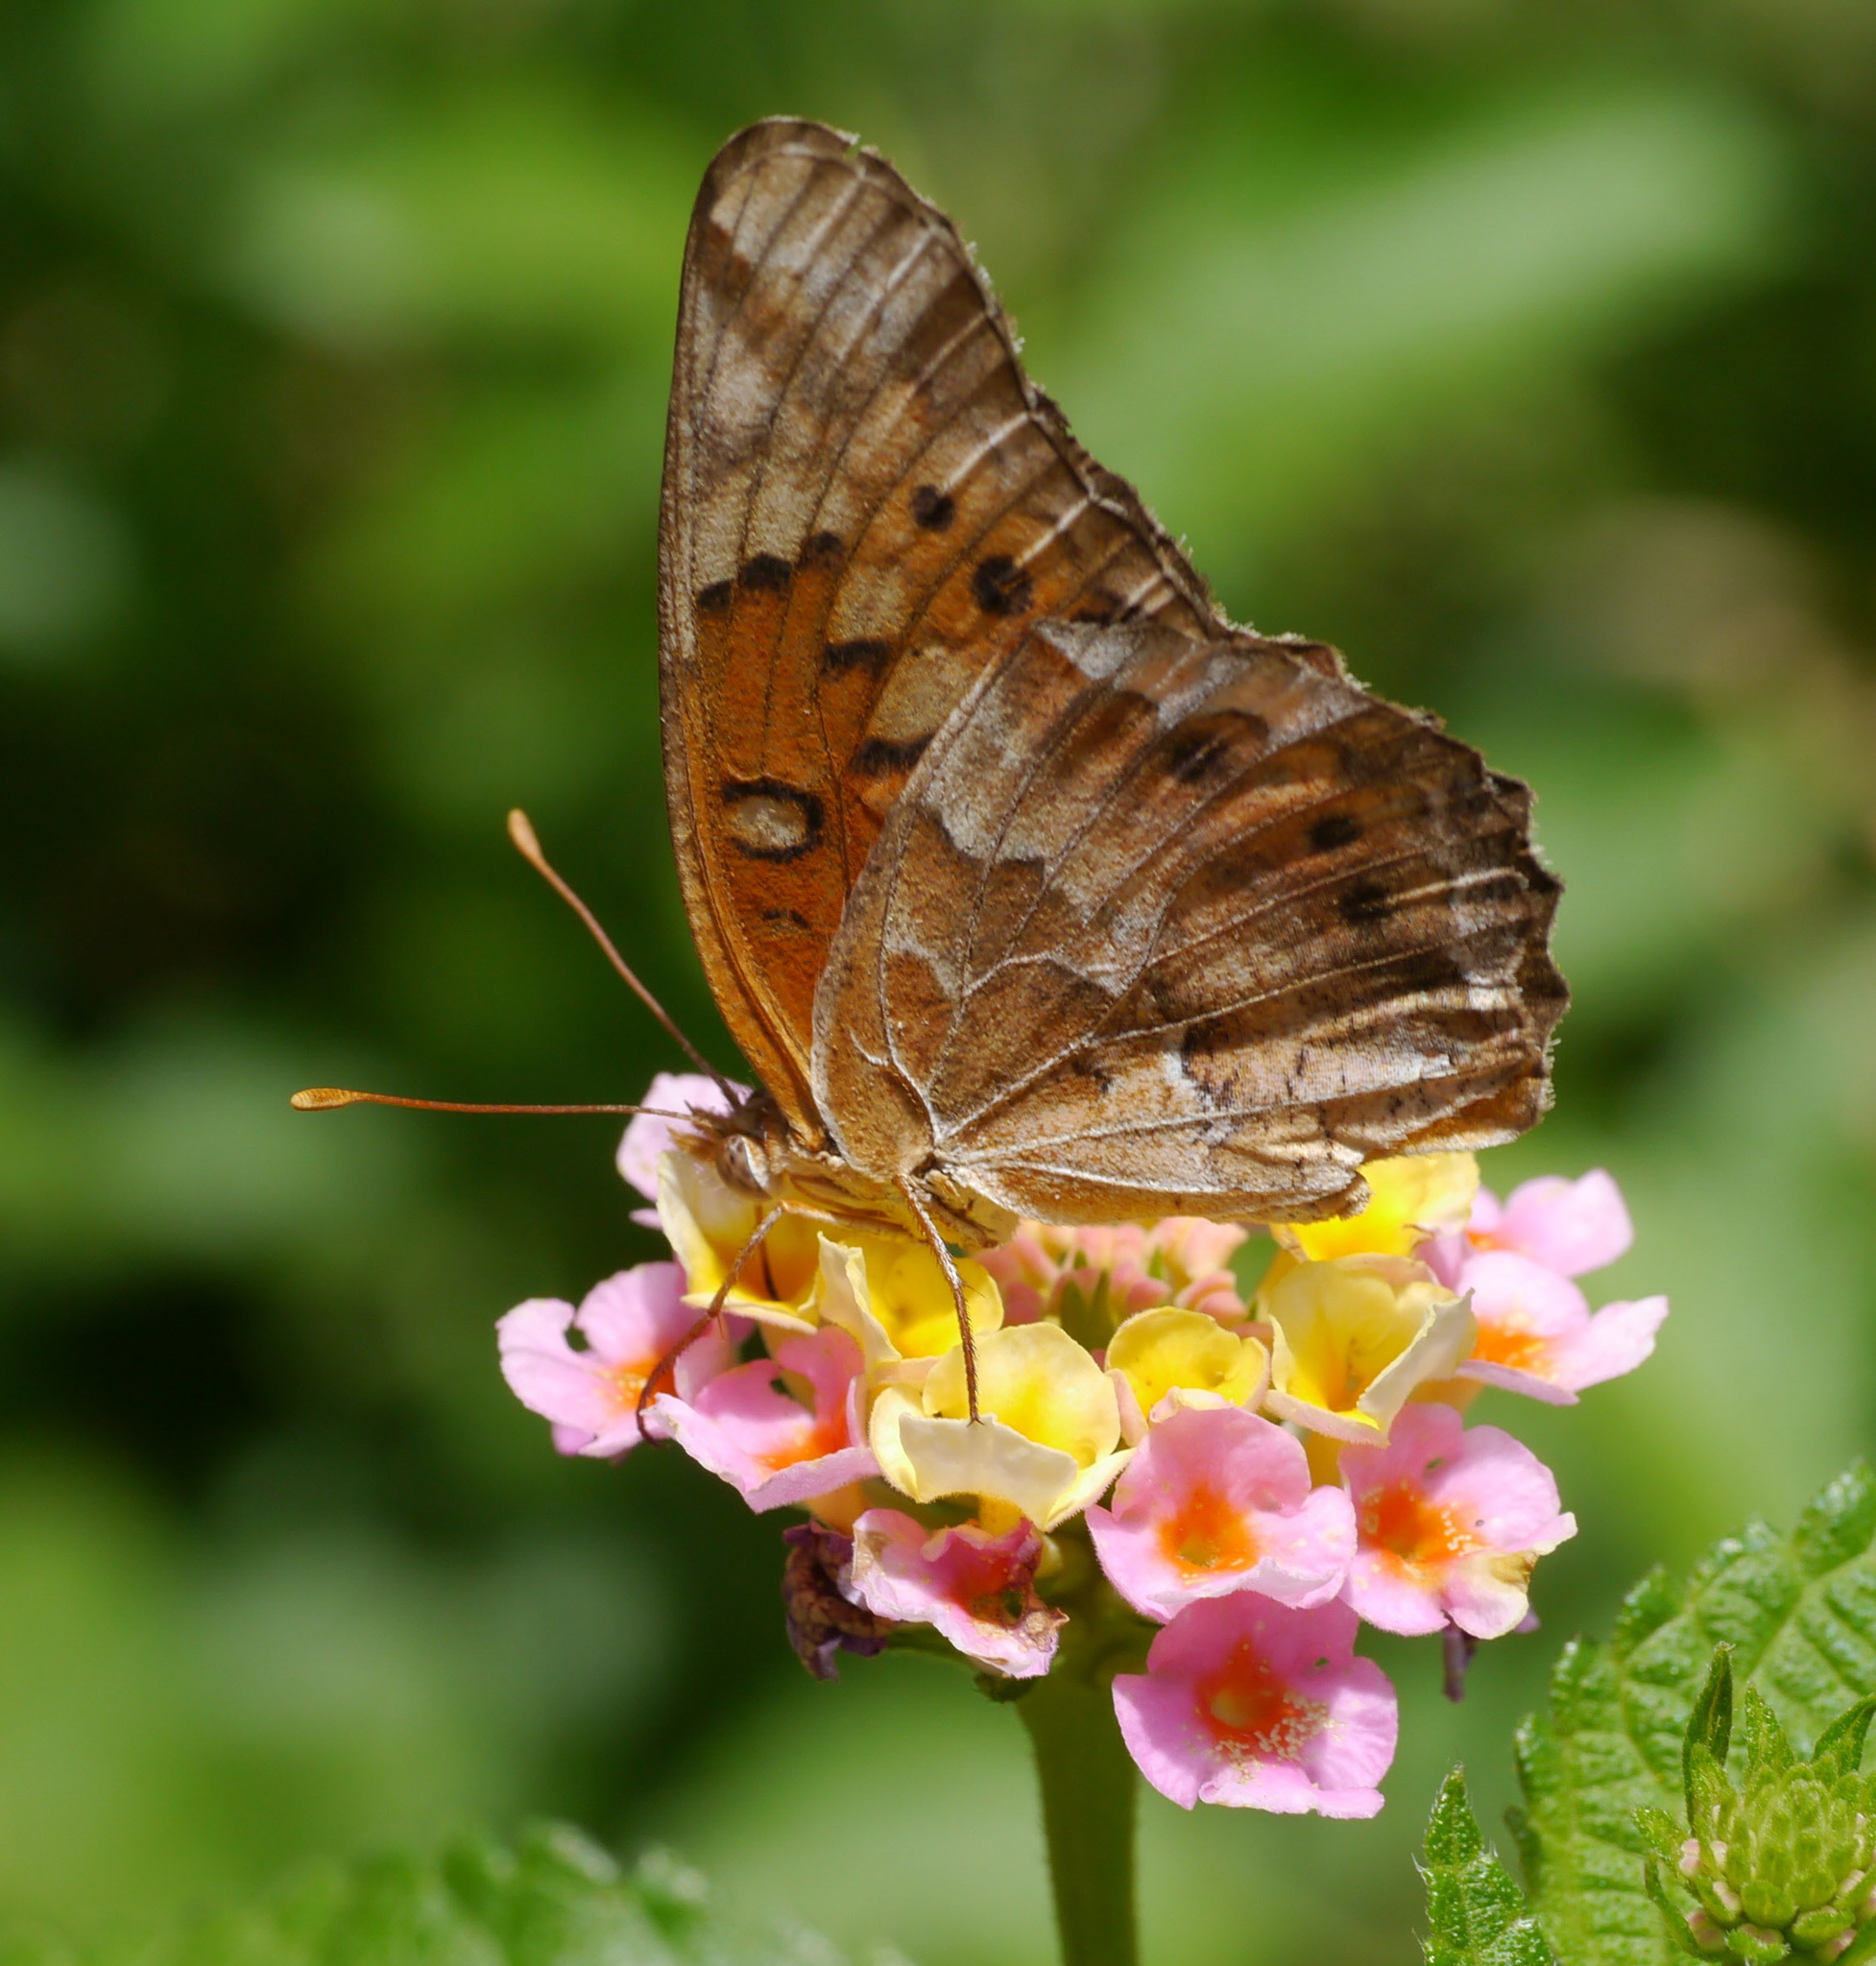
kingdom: Animalia
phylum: Arthropoda
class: Insecta
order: Lepidoptera
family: Nymphalidae
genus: Euptoieta
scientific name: Euptoieta claudia
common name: Variegated fritillary
